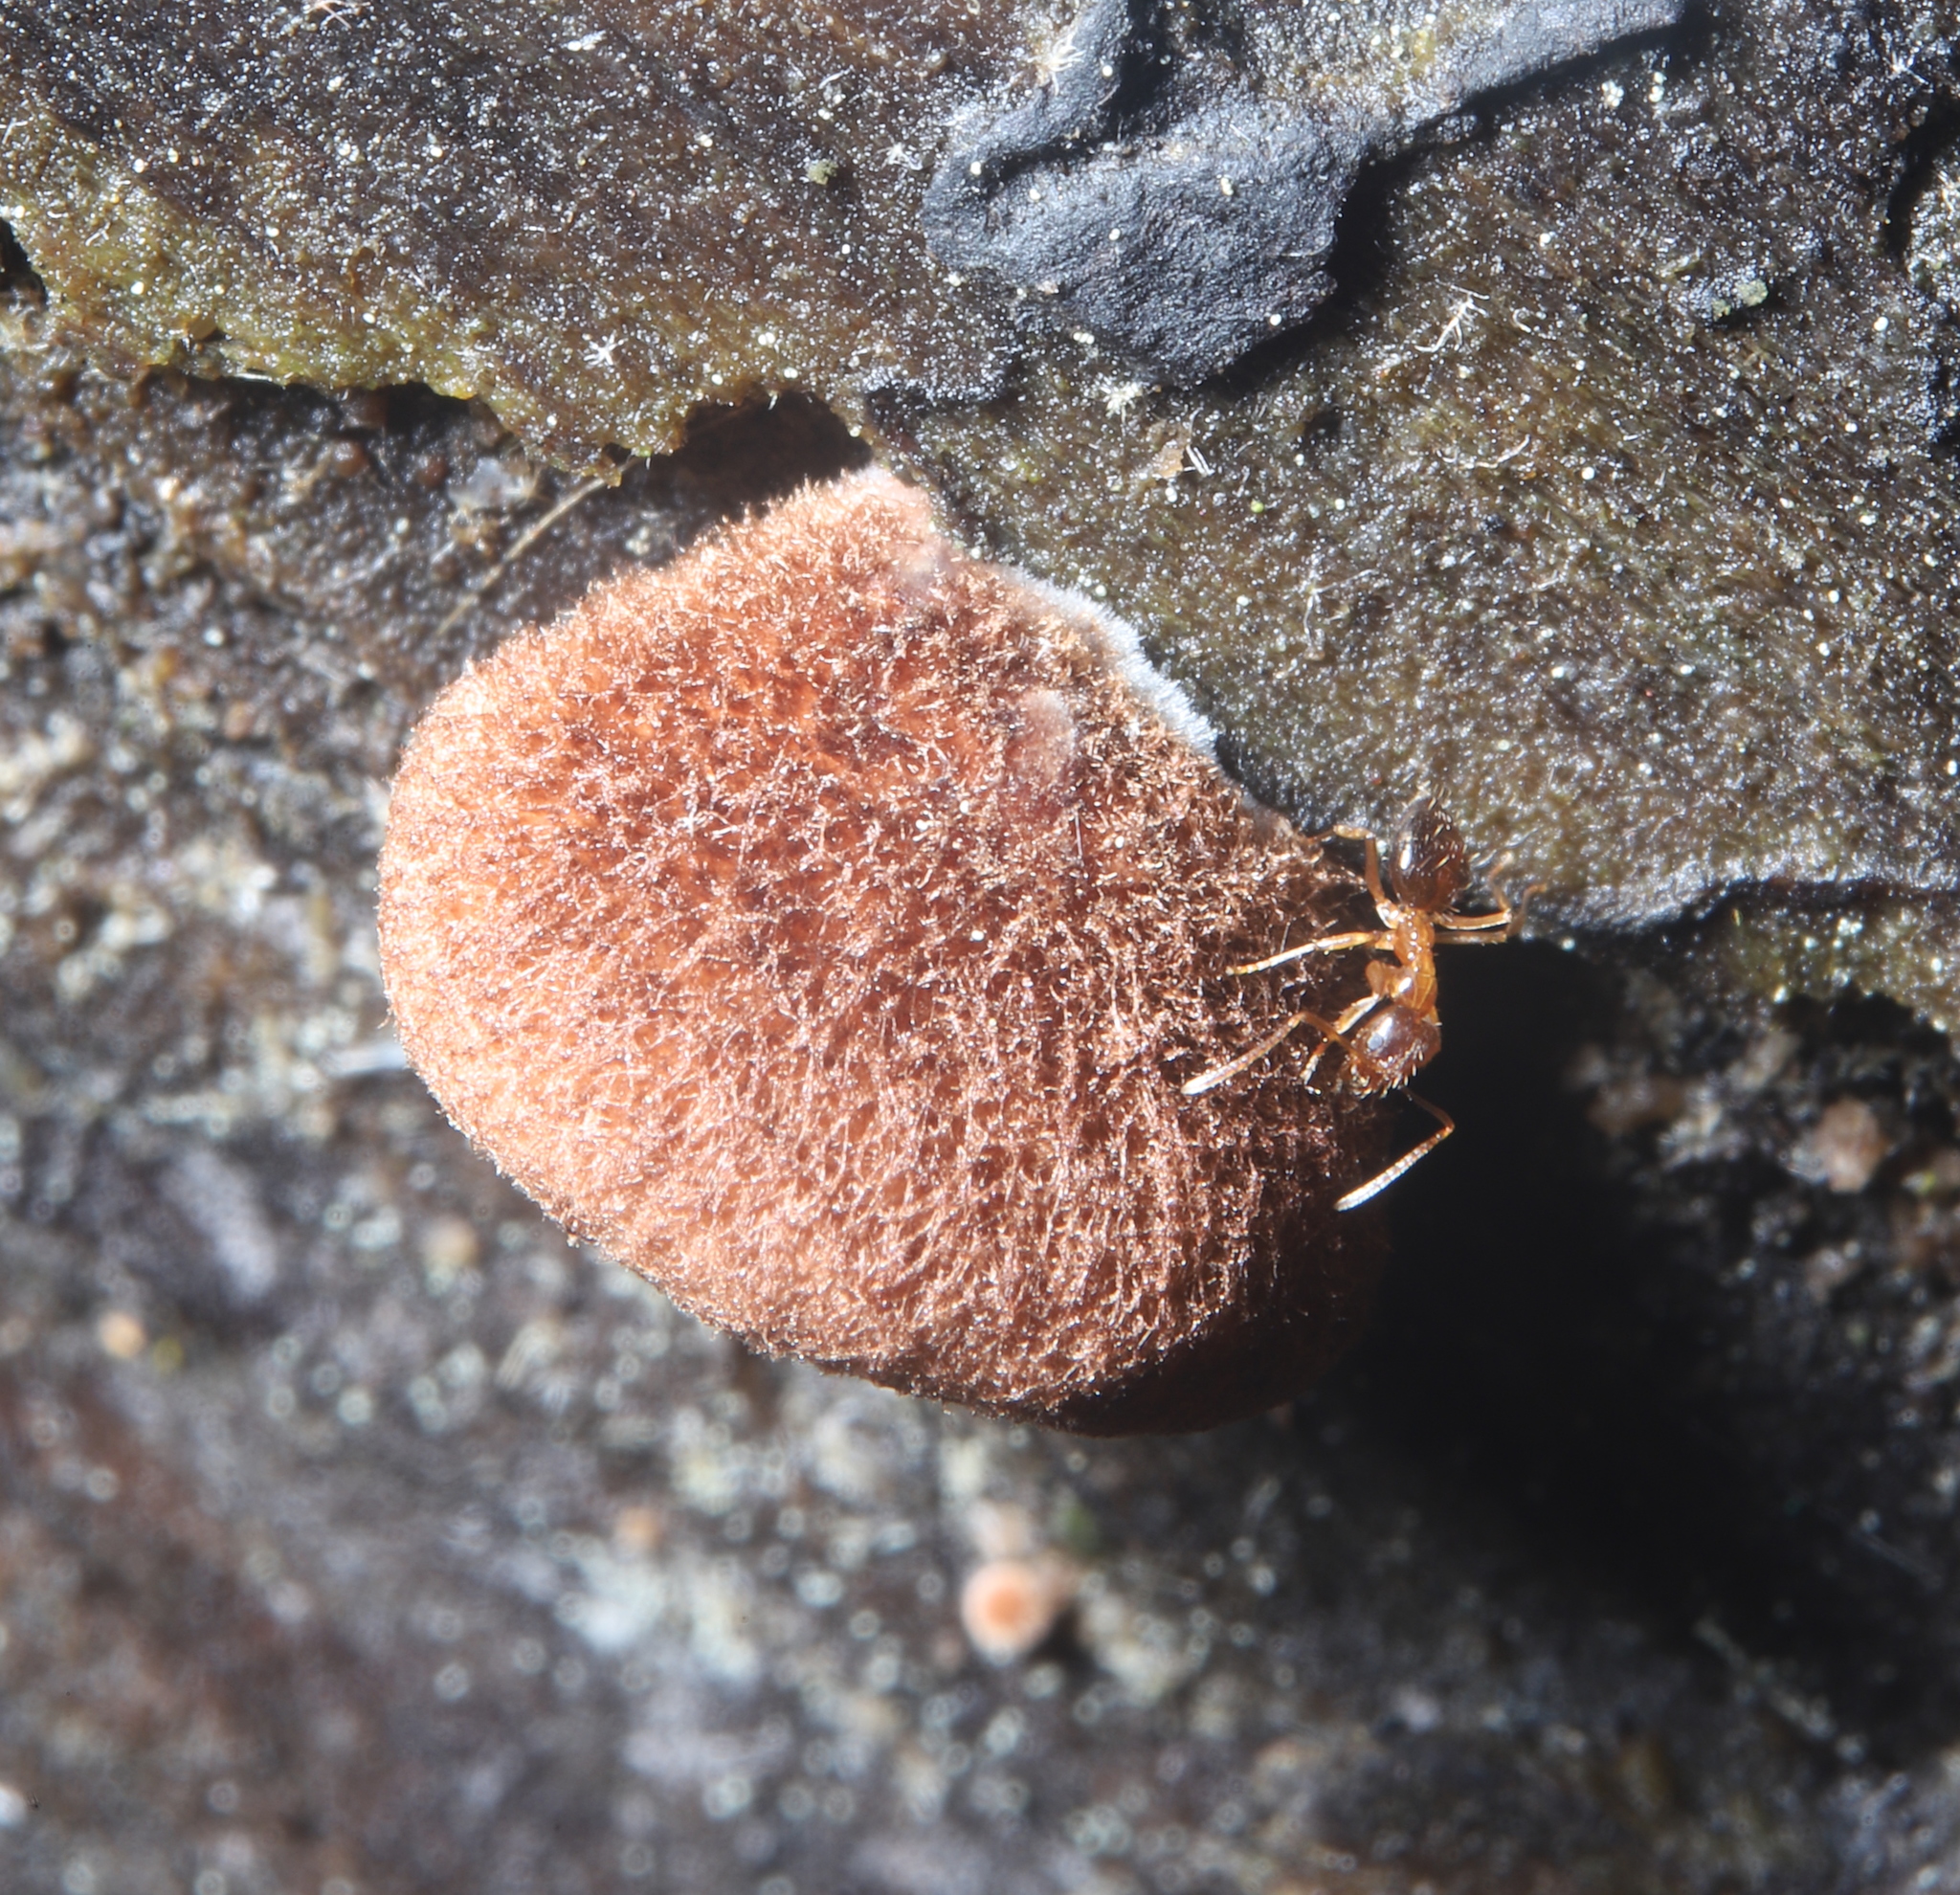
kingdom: Animalia
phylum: Arthropoda
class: Insecta
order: Hymenoptera
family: Formicidae
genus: Paratrechina
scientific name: Paratrechina flavipes
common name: Eastern asian formicine ant
